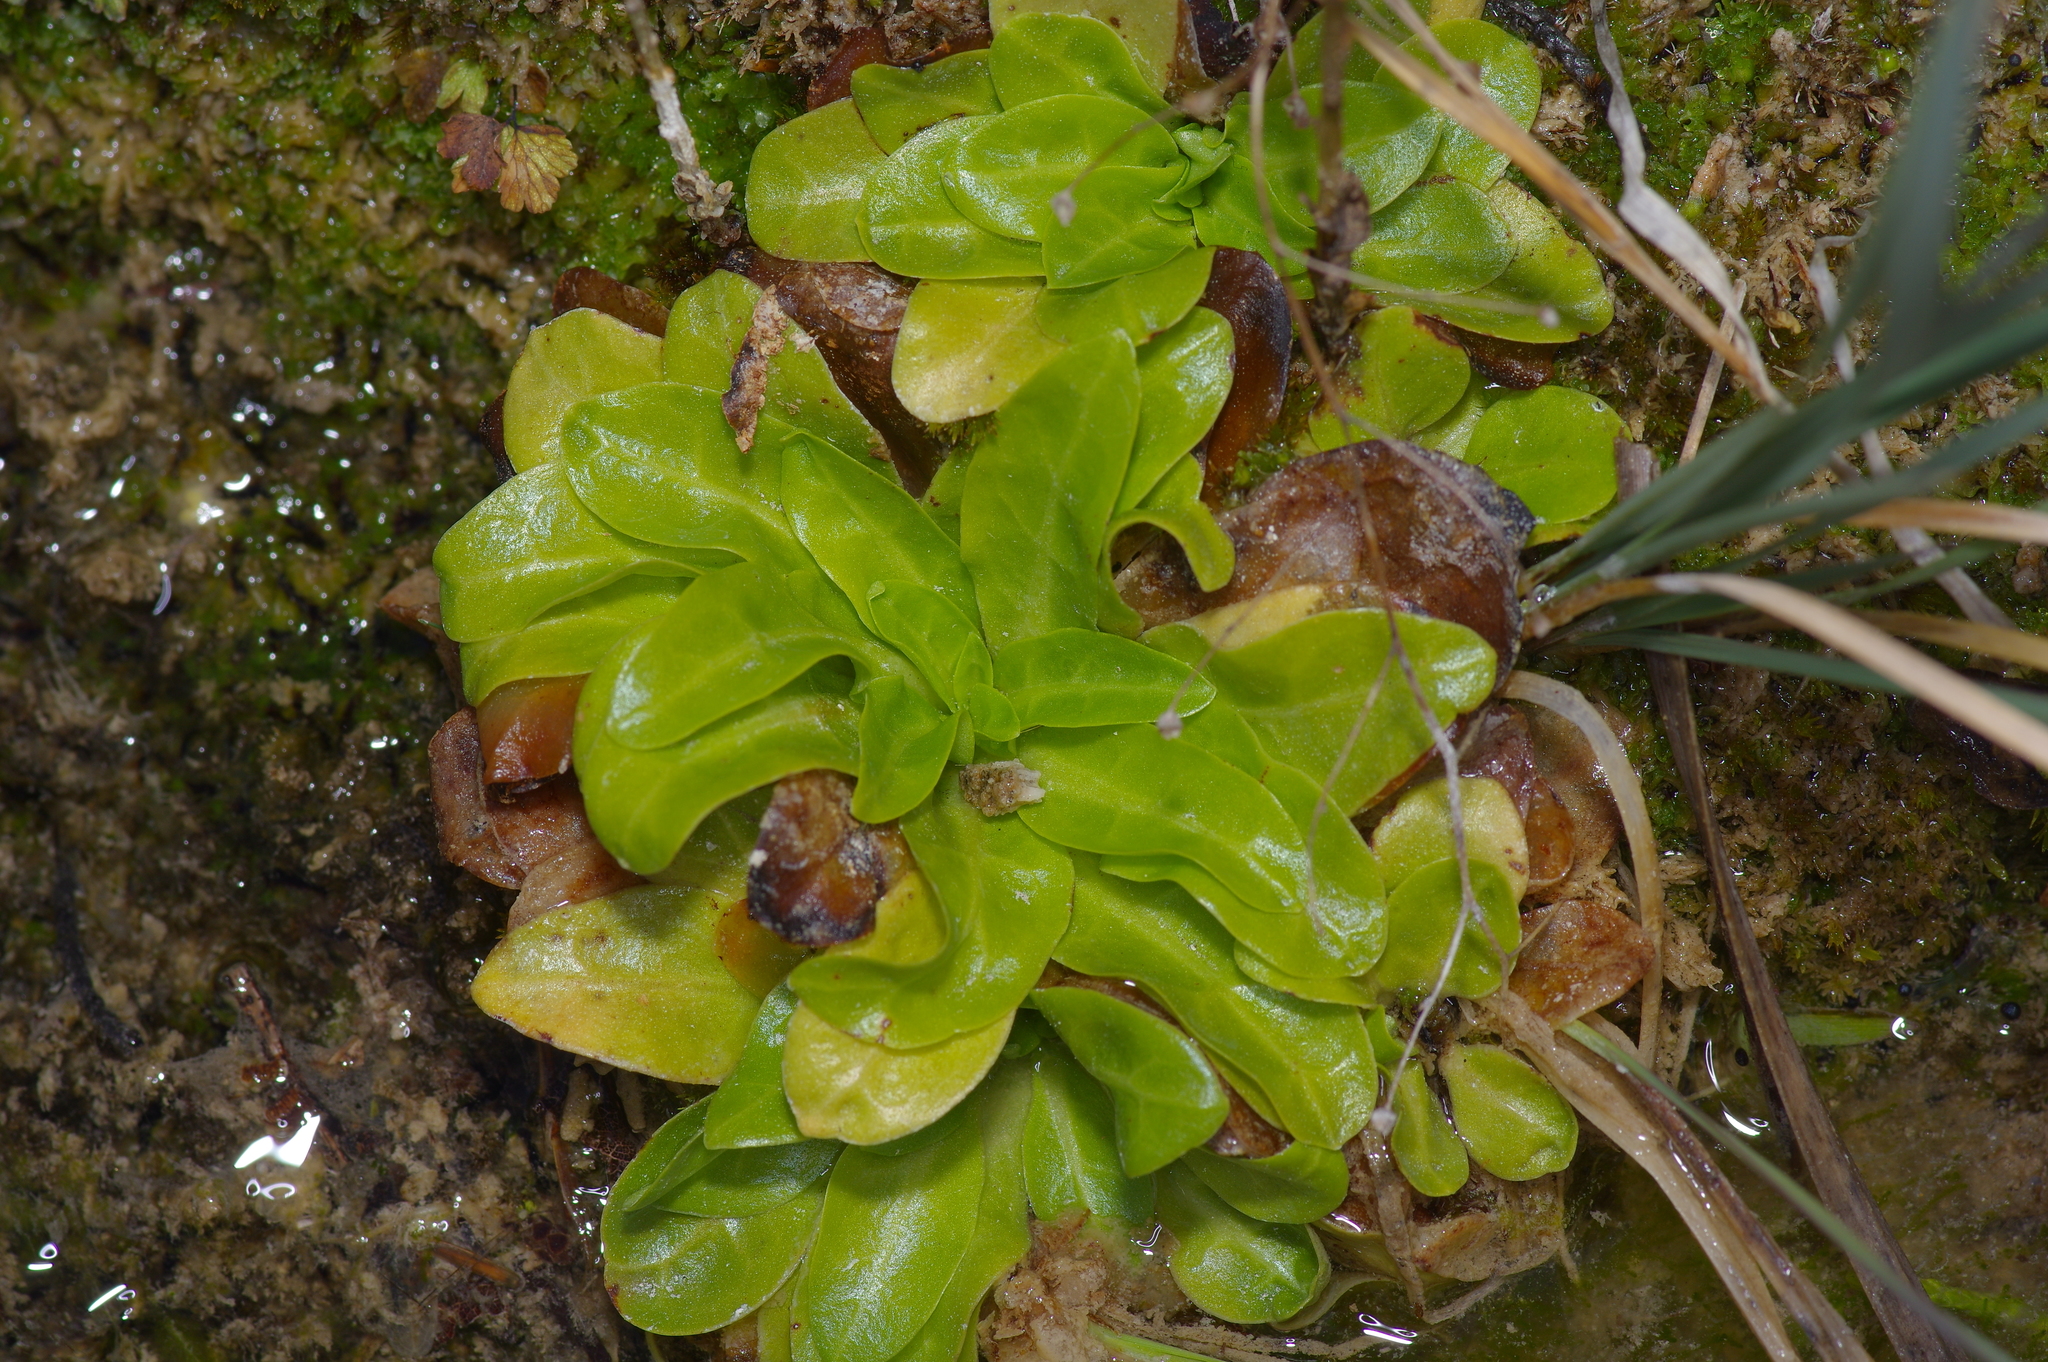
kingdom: Plantae
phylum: Tracheophyta
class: Magnoliopsida
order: Ericales
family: Primulaceae
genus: Samolus
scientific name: Samolus parviflorus
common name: False water pimpernel
